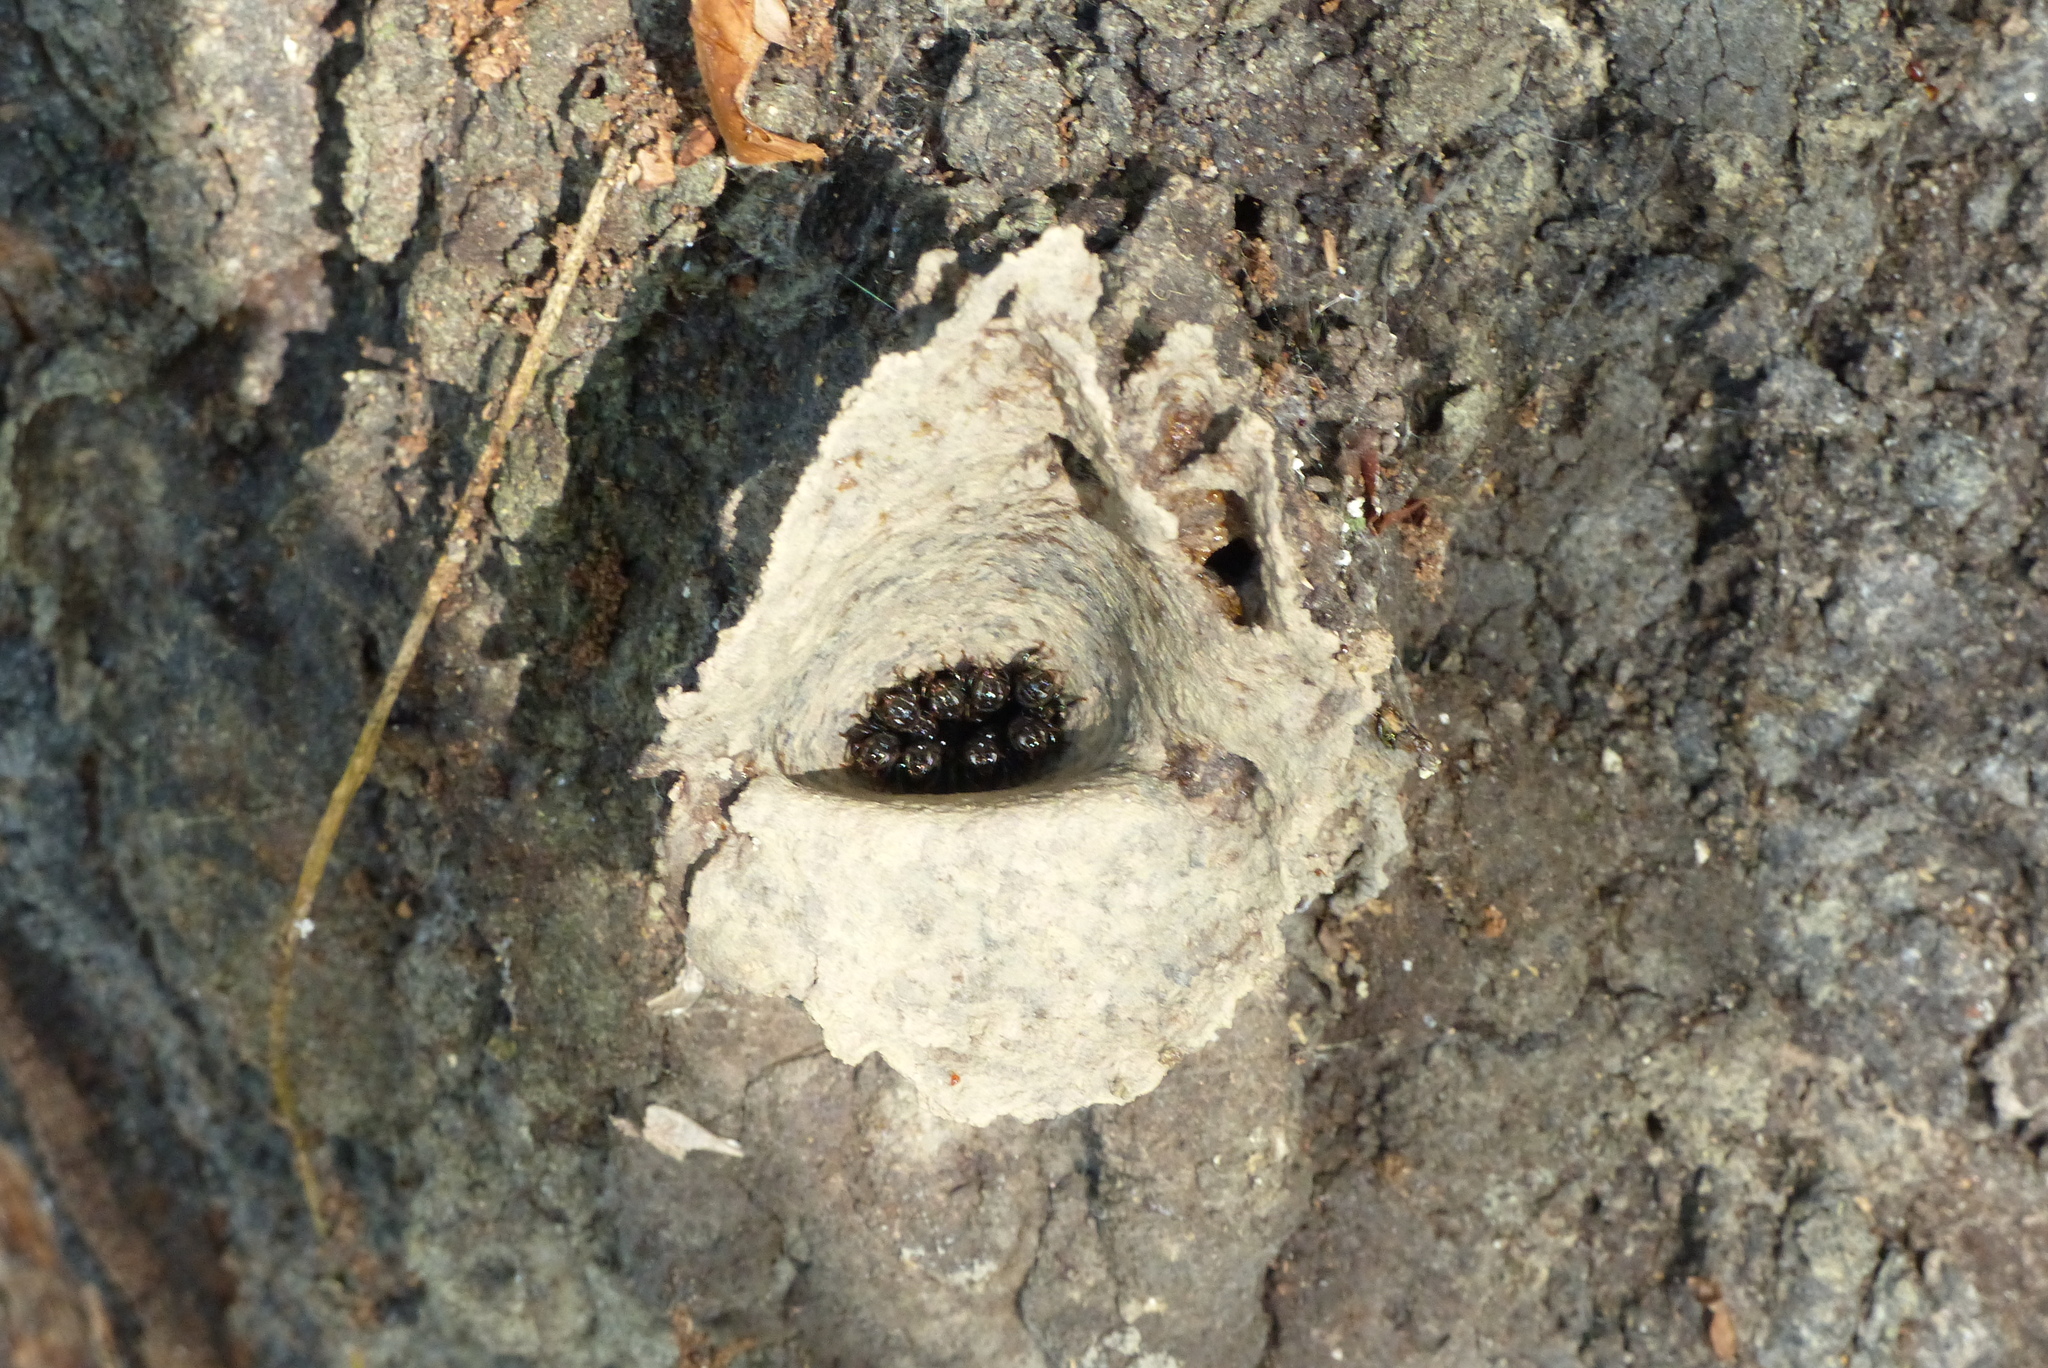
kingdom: Animalia
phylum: Arthropoda
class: Insecta
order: Hymenoptera
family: Apidae
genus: Partamona
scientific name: Partamona helleri
